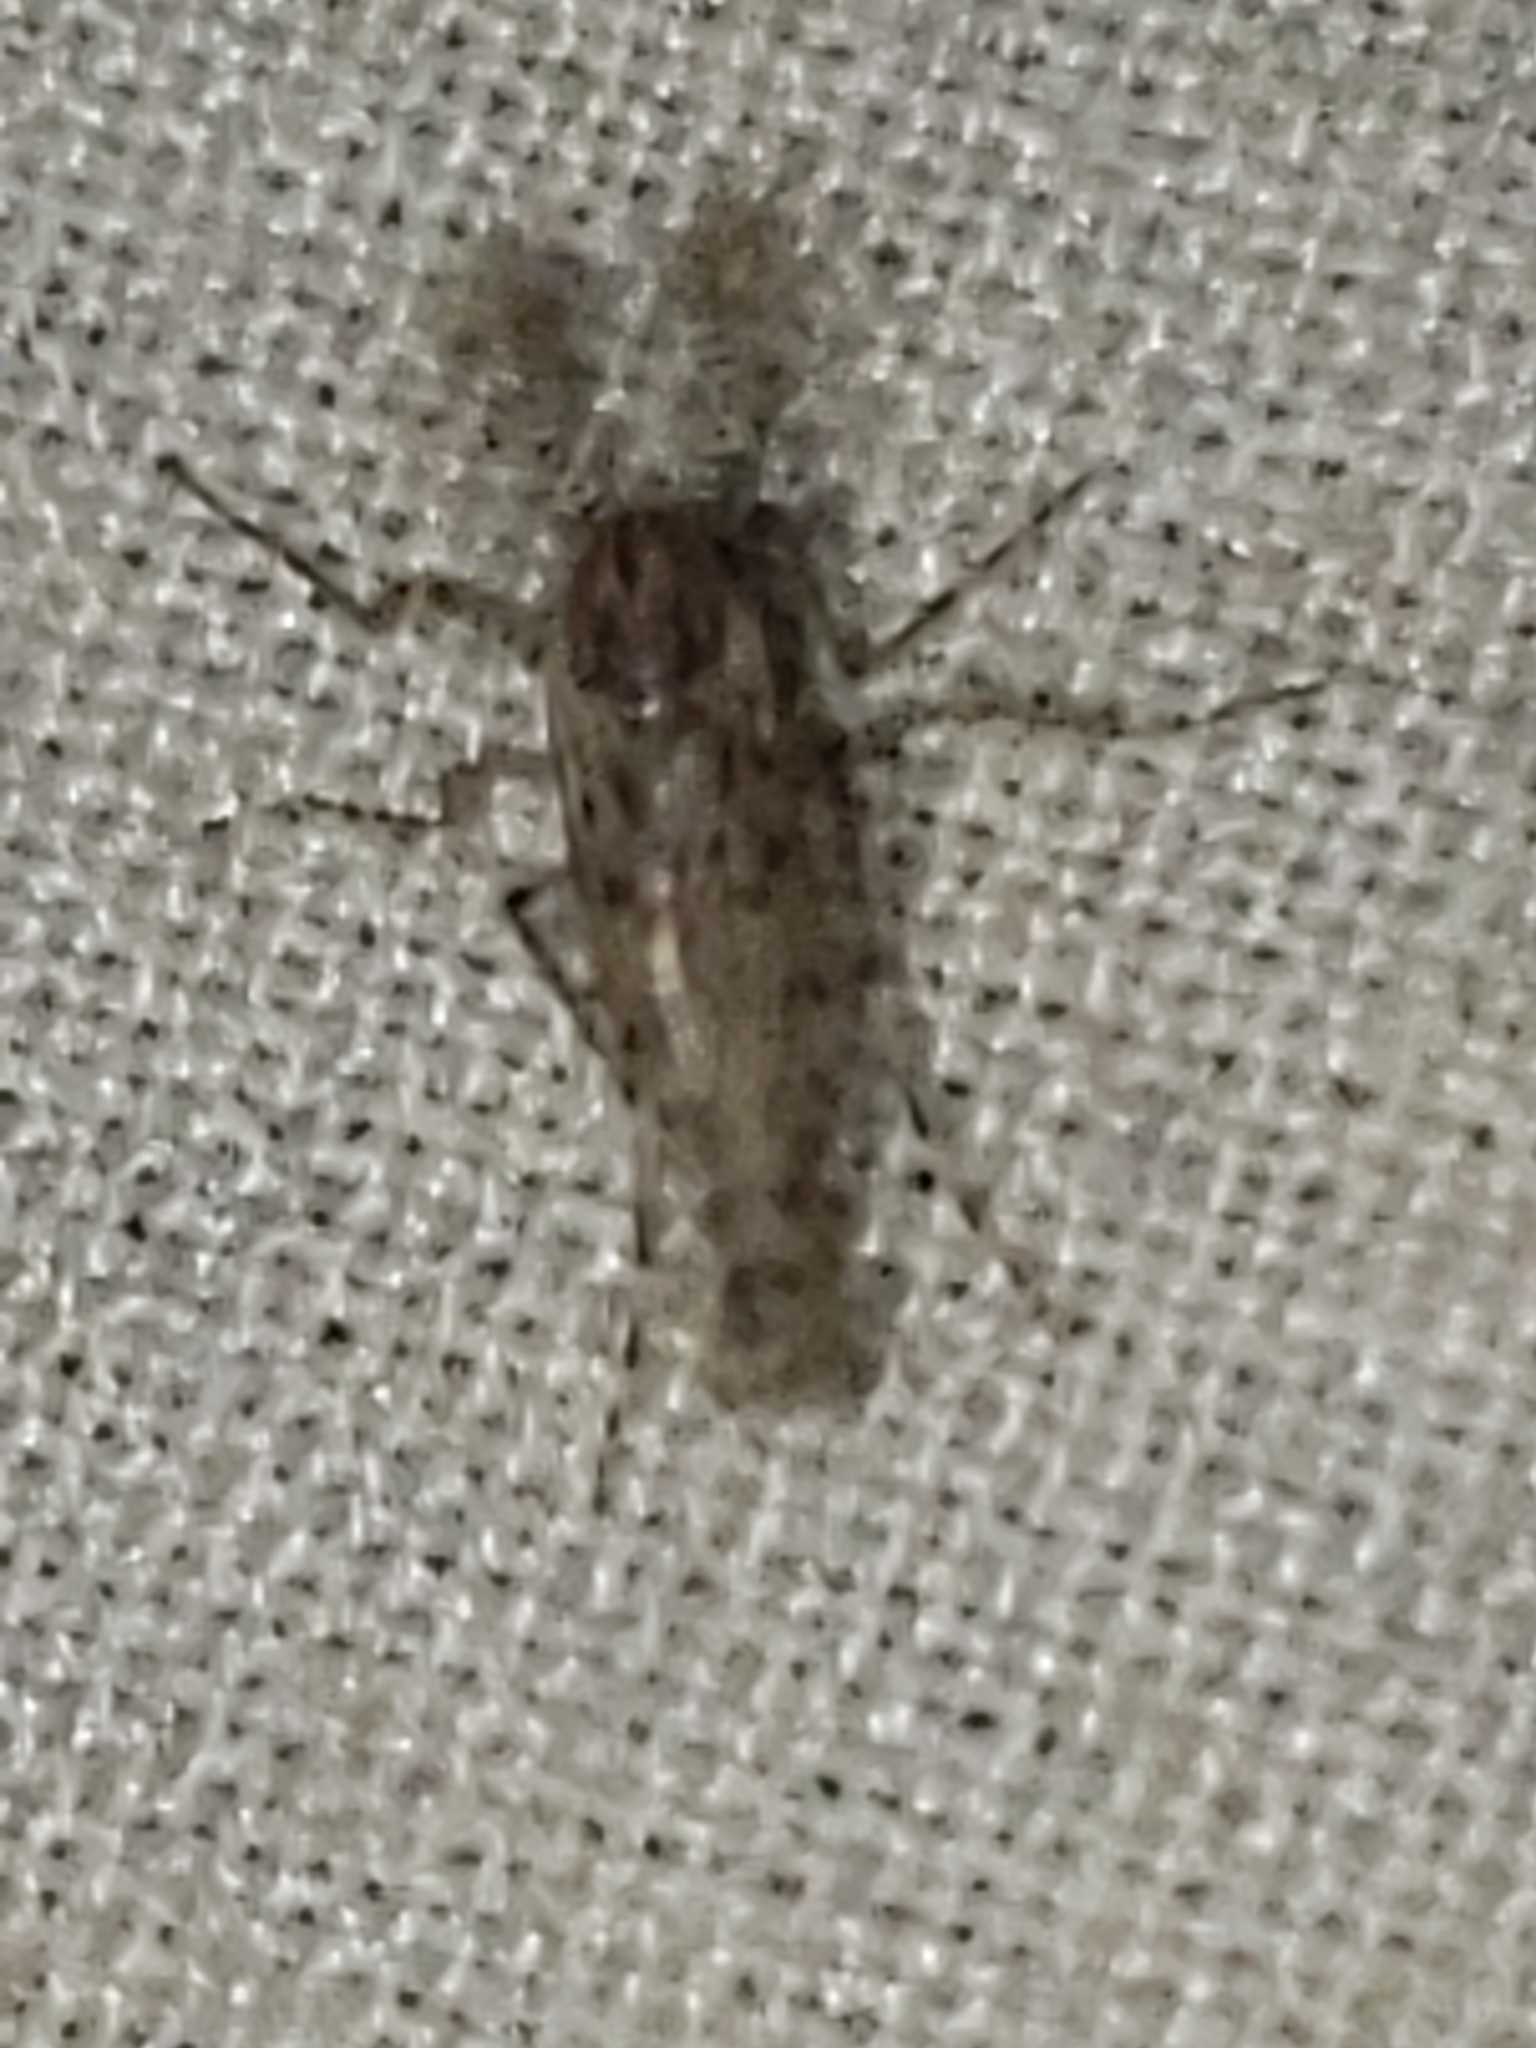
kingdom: Animalia
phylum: Arthropoda
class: Insecta
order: Diptera
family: Chaoboridae
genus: Chaoborus
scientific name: Chaoborus punctipennis
